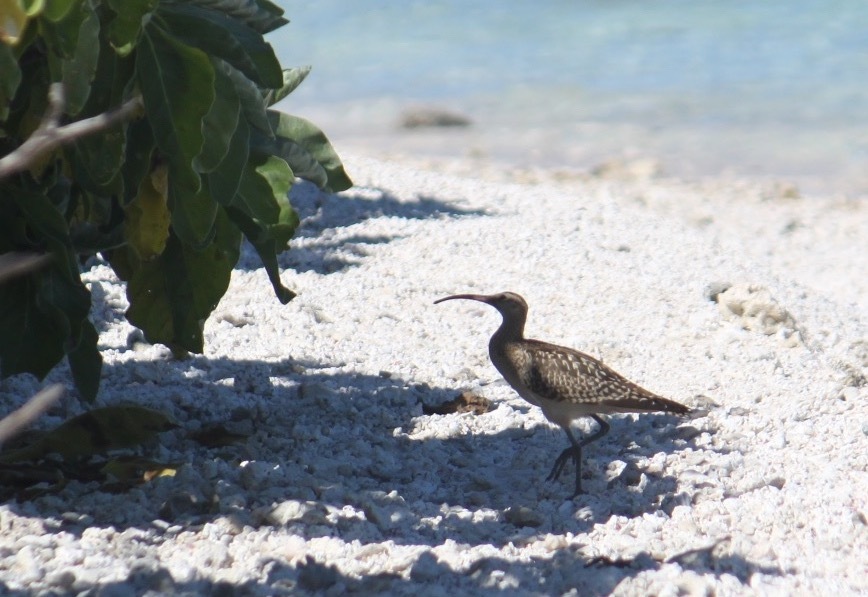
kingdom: Animalia
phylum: Chordata
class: Aves
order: Charadriiformes
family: Scolopacidae
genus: Numenius
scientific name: Numenius tahitiensis
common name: Bristle-thighed curlew
